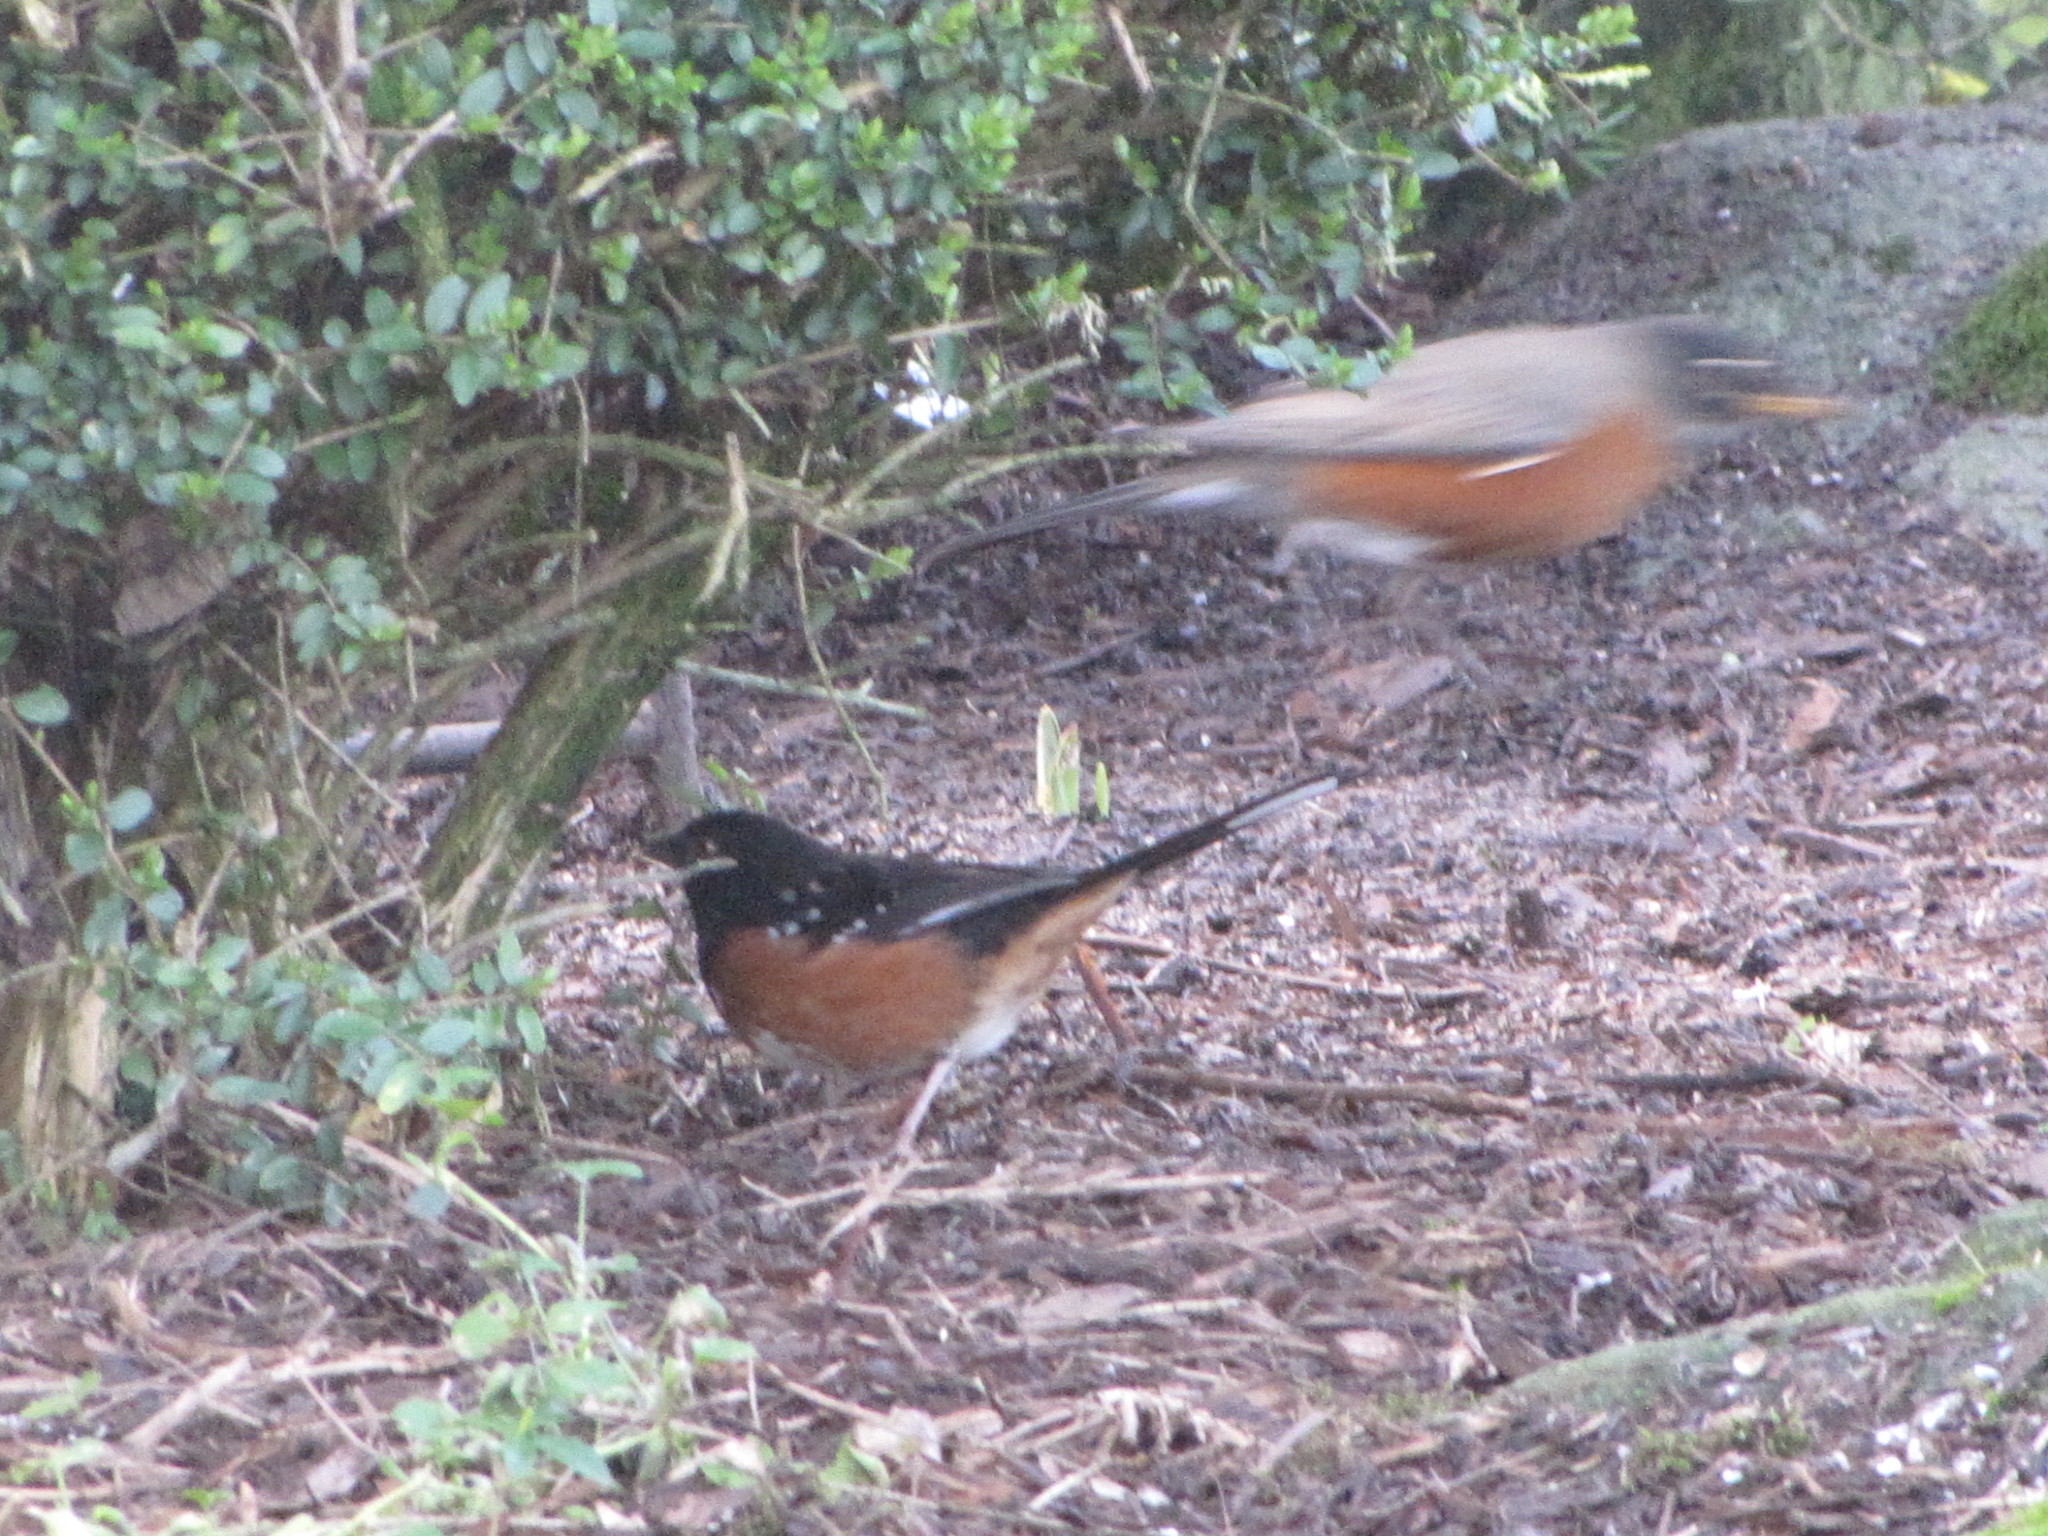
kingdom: Animalia
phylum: Chordata
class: Aves
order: Passeriformes
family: Passerellidae
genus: Pipilo
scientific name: Pipilo maculatus
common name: Spotted towhee
